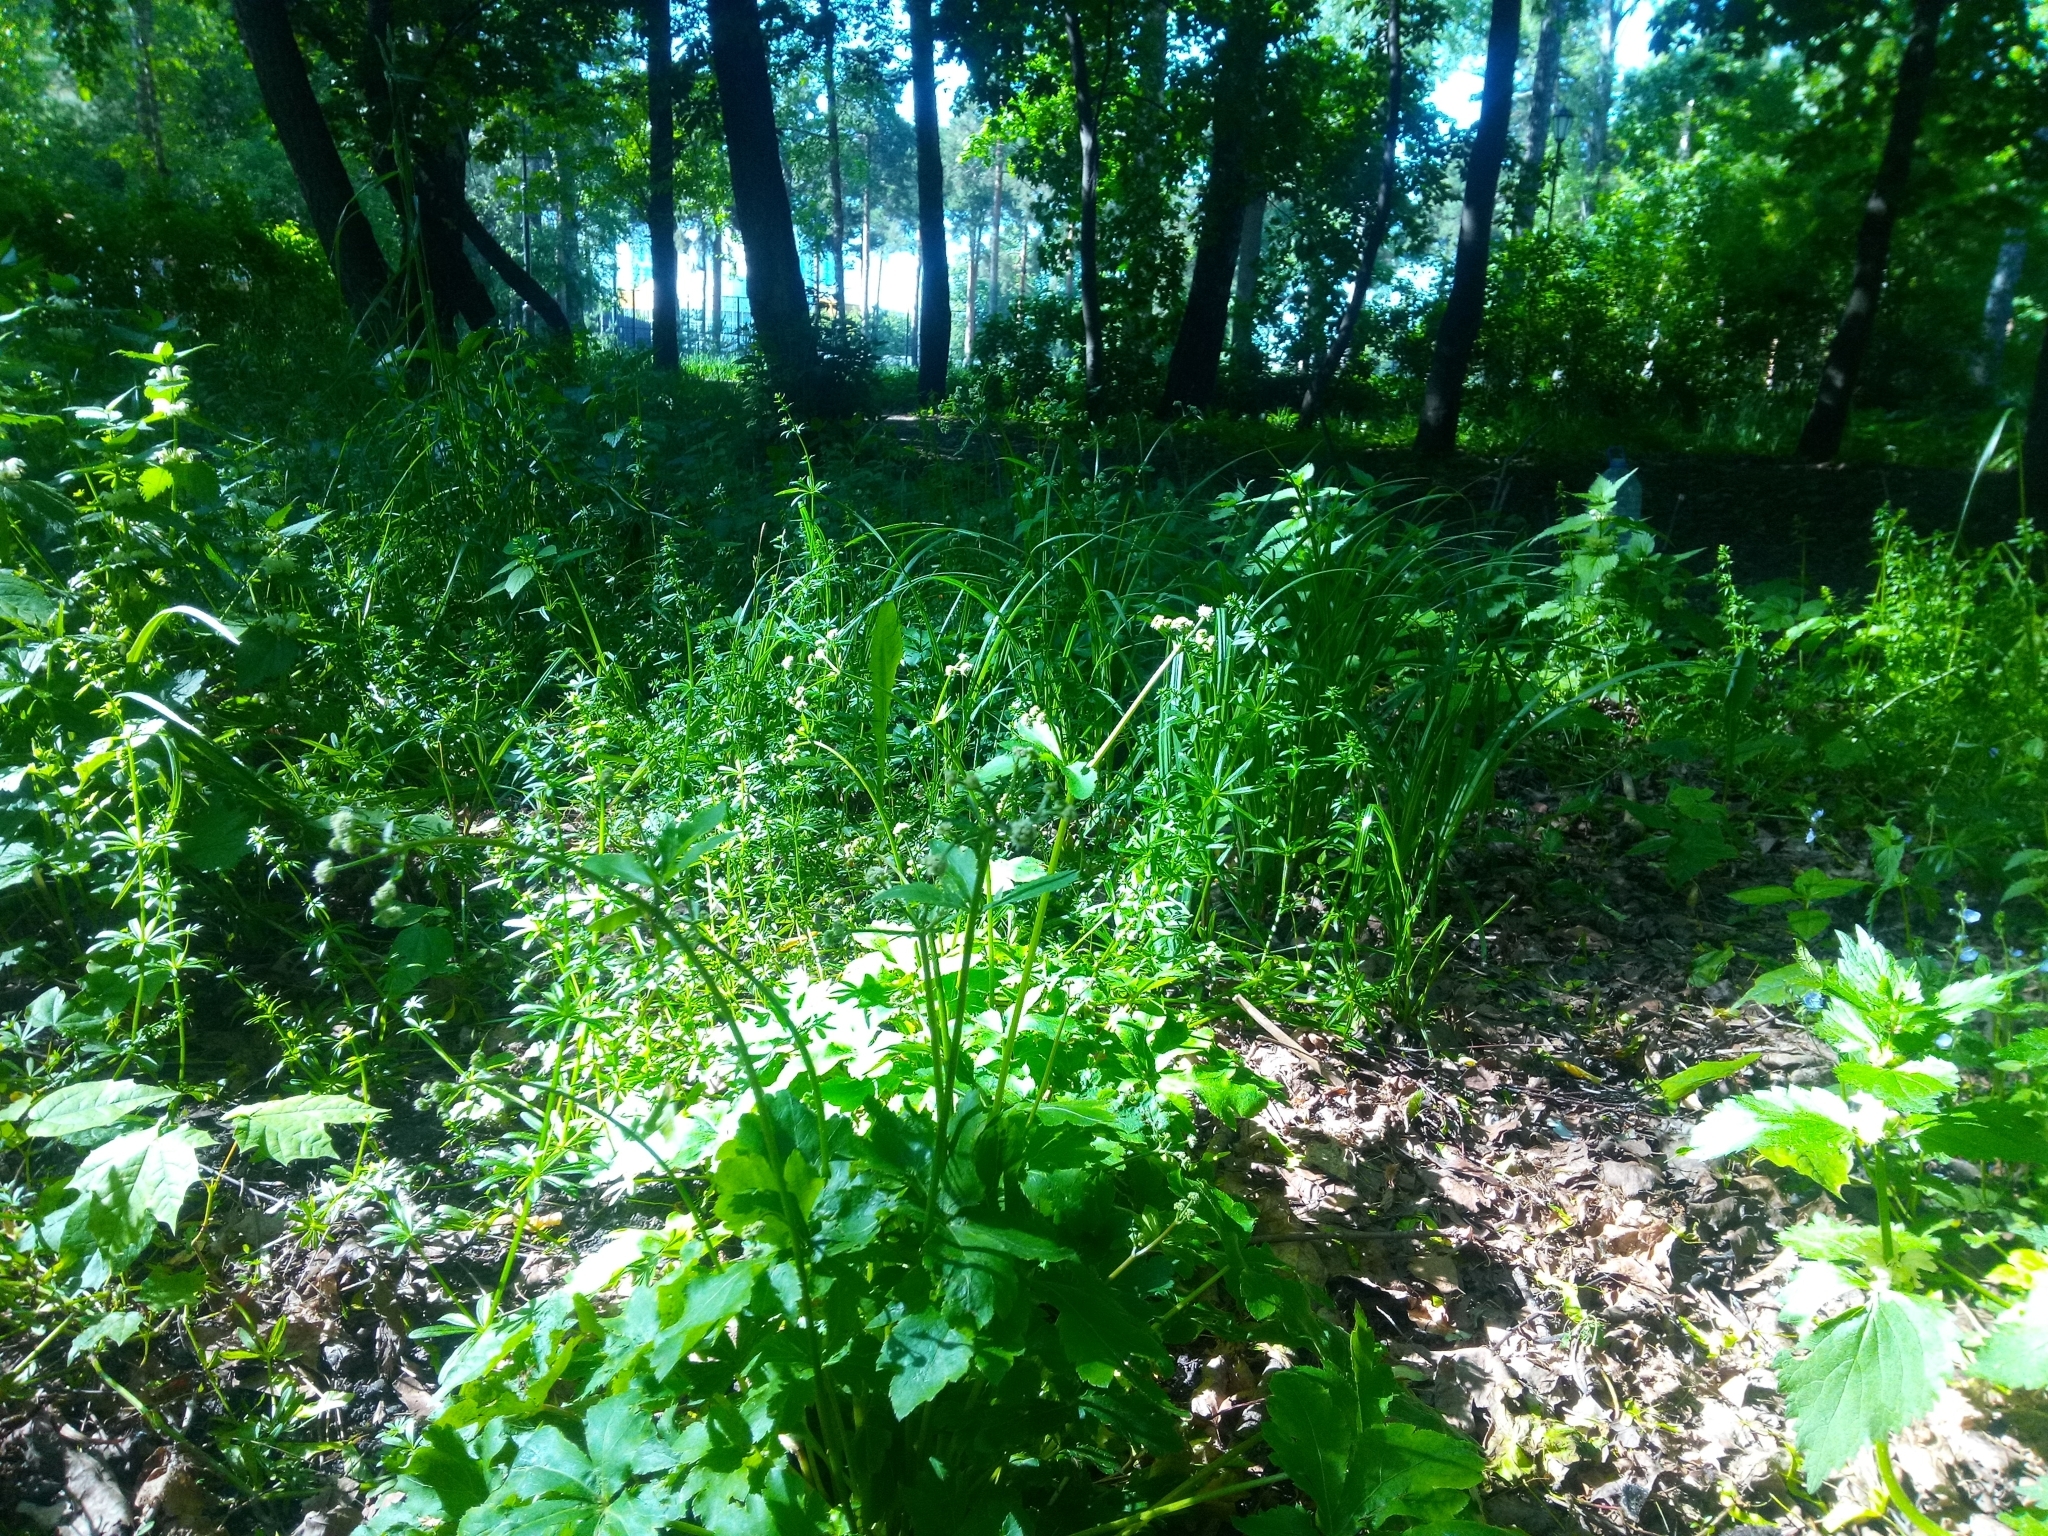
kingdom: Plantae
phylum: Tracheophyta
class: Magnoliopsida
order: Apiales
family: Apiaceae
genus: Sanicula
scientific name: Sanicula europaea
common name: Sanicle
